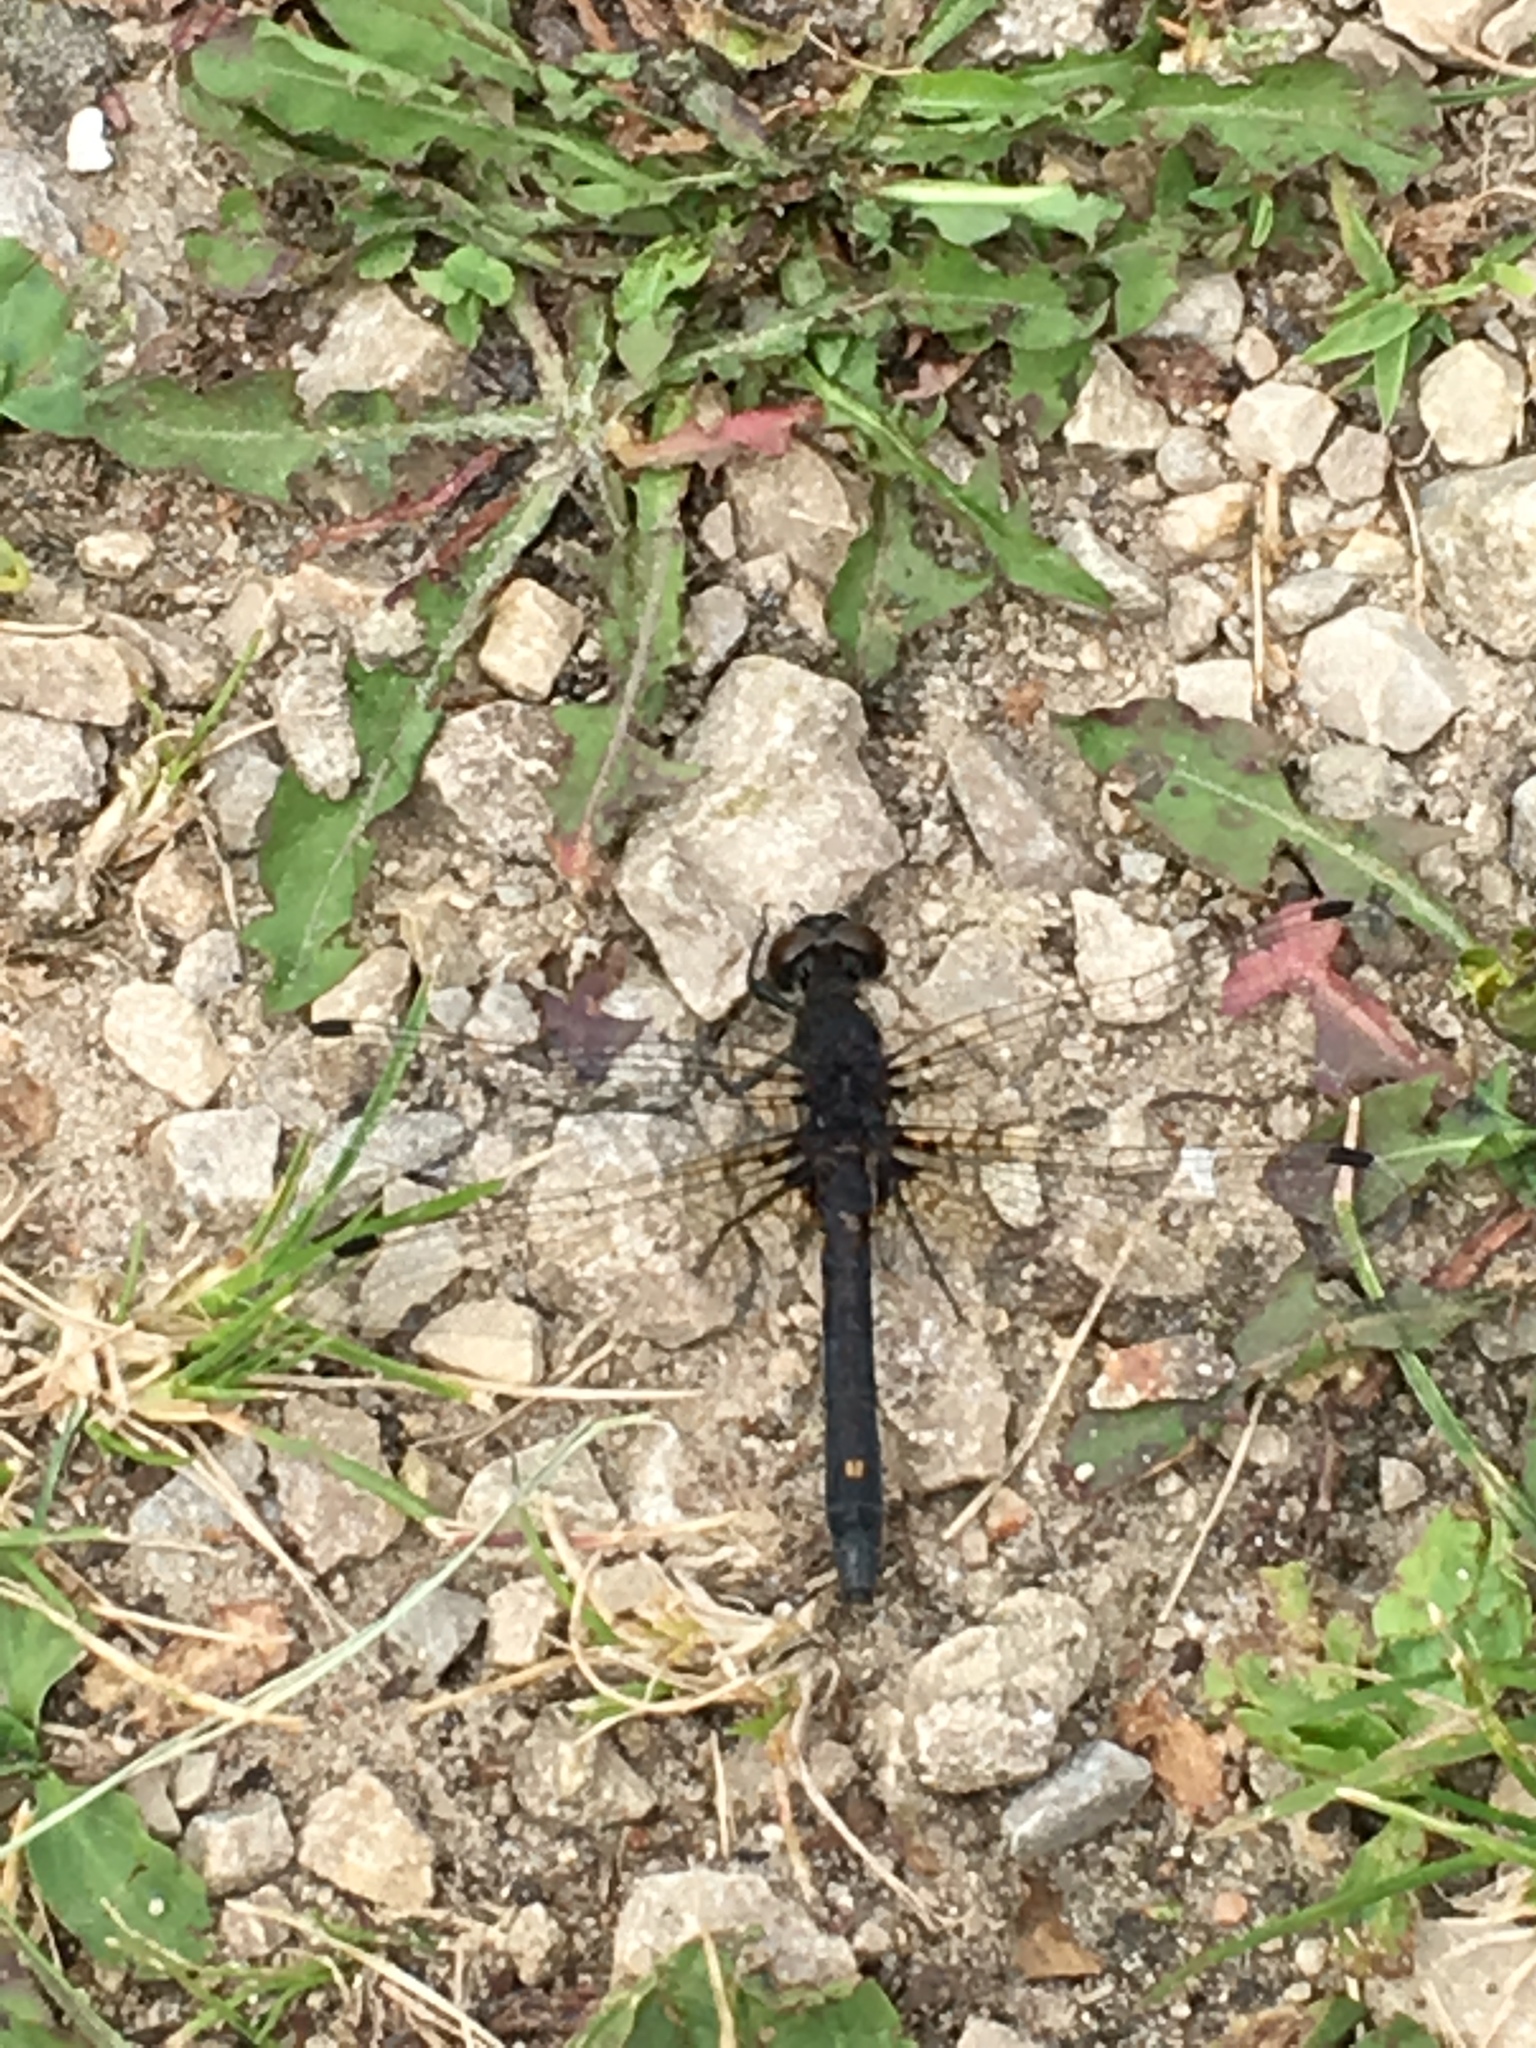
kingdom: Animalia
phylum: Arthropoda
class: Insecta
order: Odonata
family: Libellulidae
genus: Leucorrhinia
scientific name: Leucorrhinia intacta
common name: Dot-tailed whiteface
